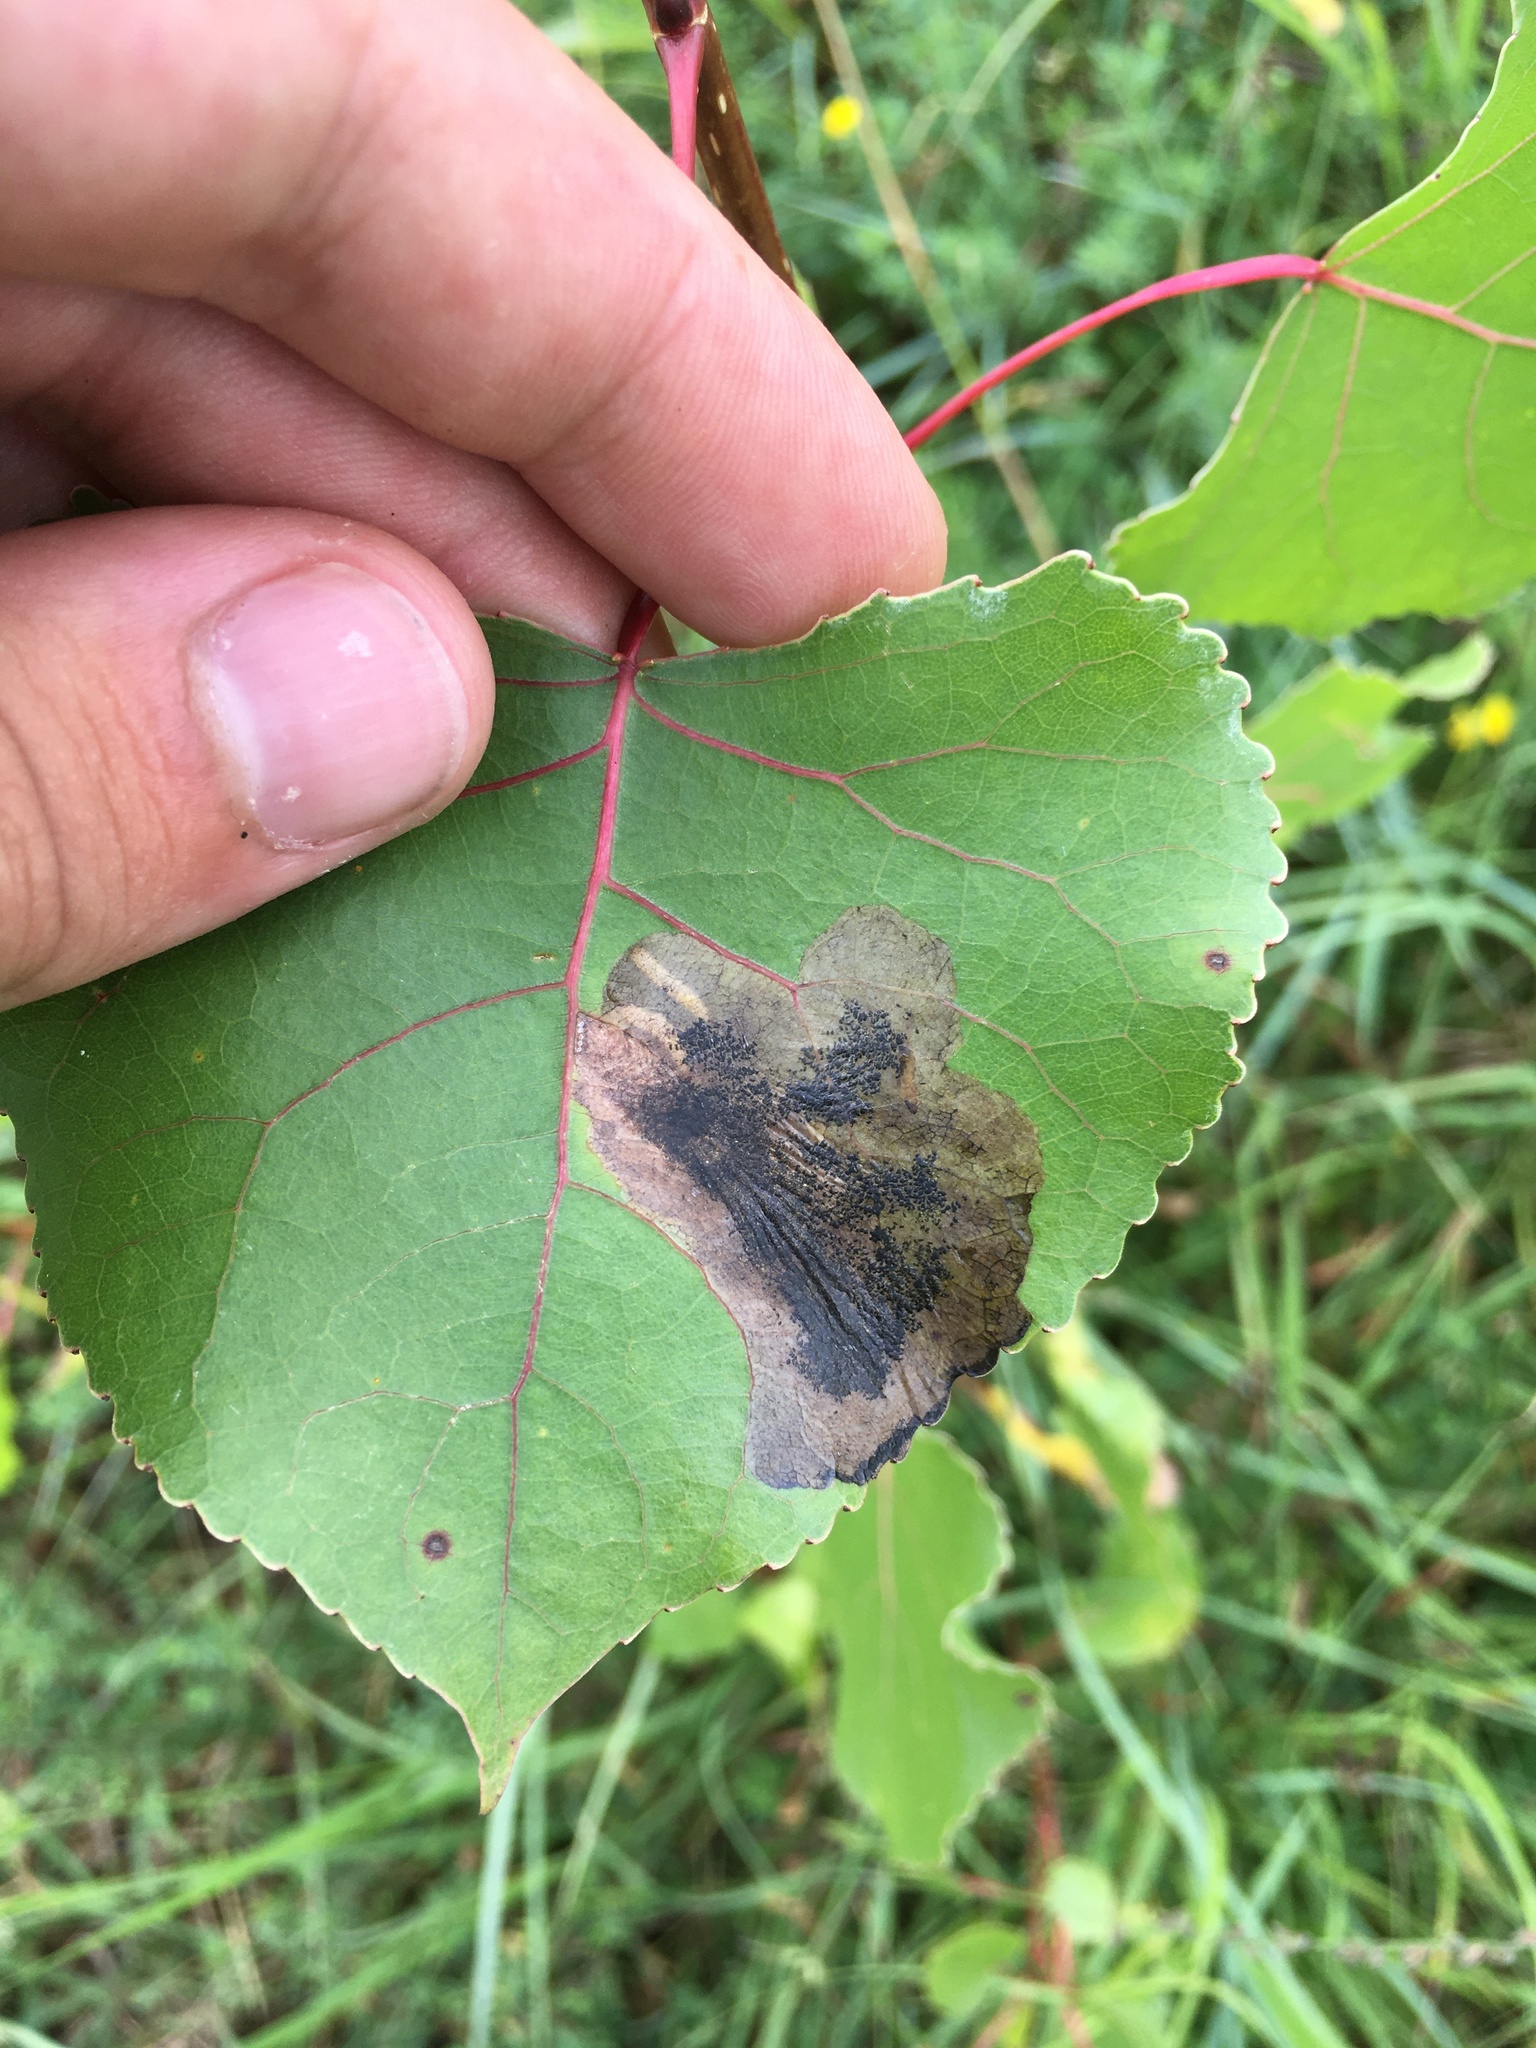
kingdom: Animalia
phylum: Arthropoda
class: Insecta
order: Lepidoptera
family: Lyonetiidae
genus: Leucoptera
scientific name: Leucoptera Paraleucoptera albella
